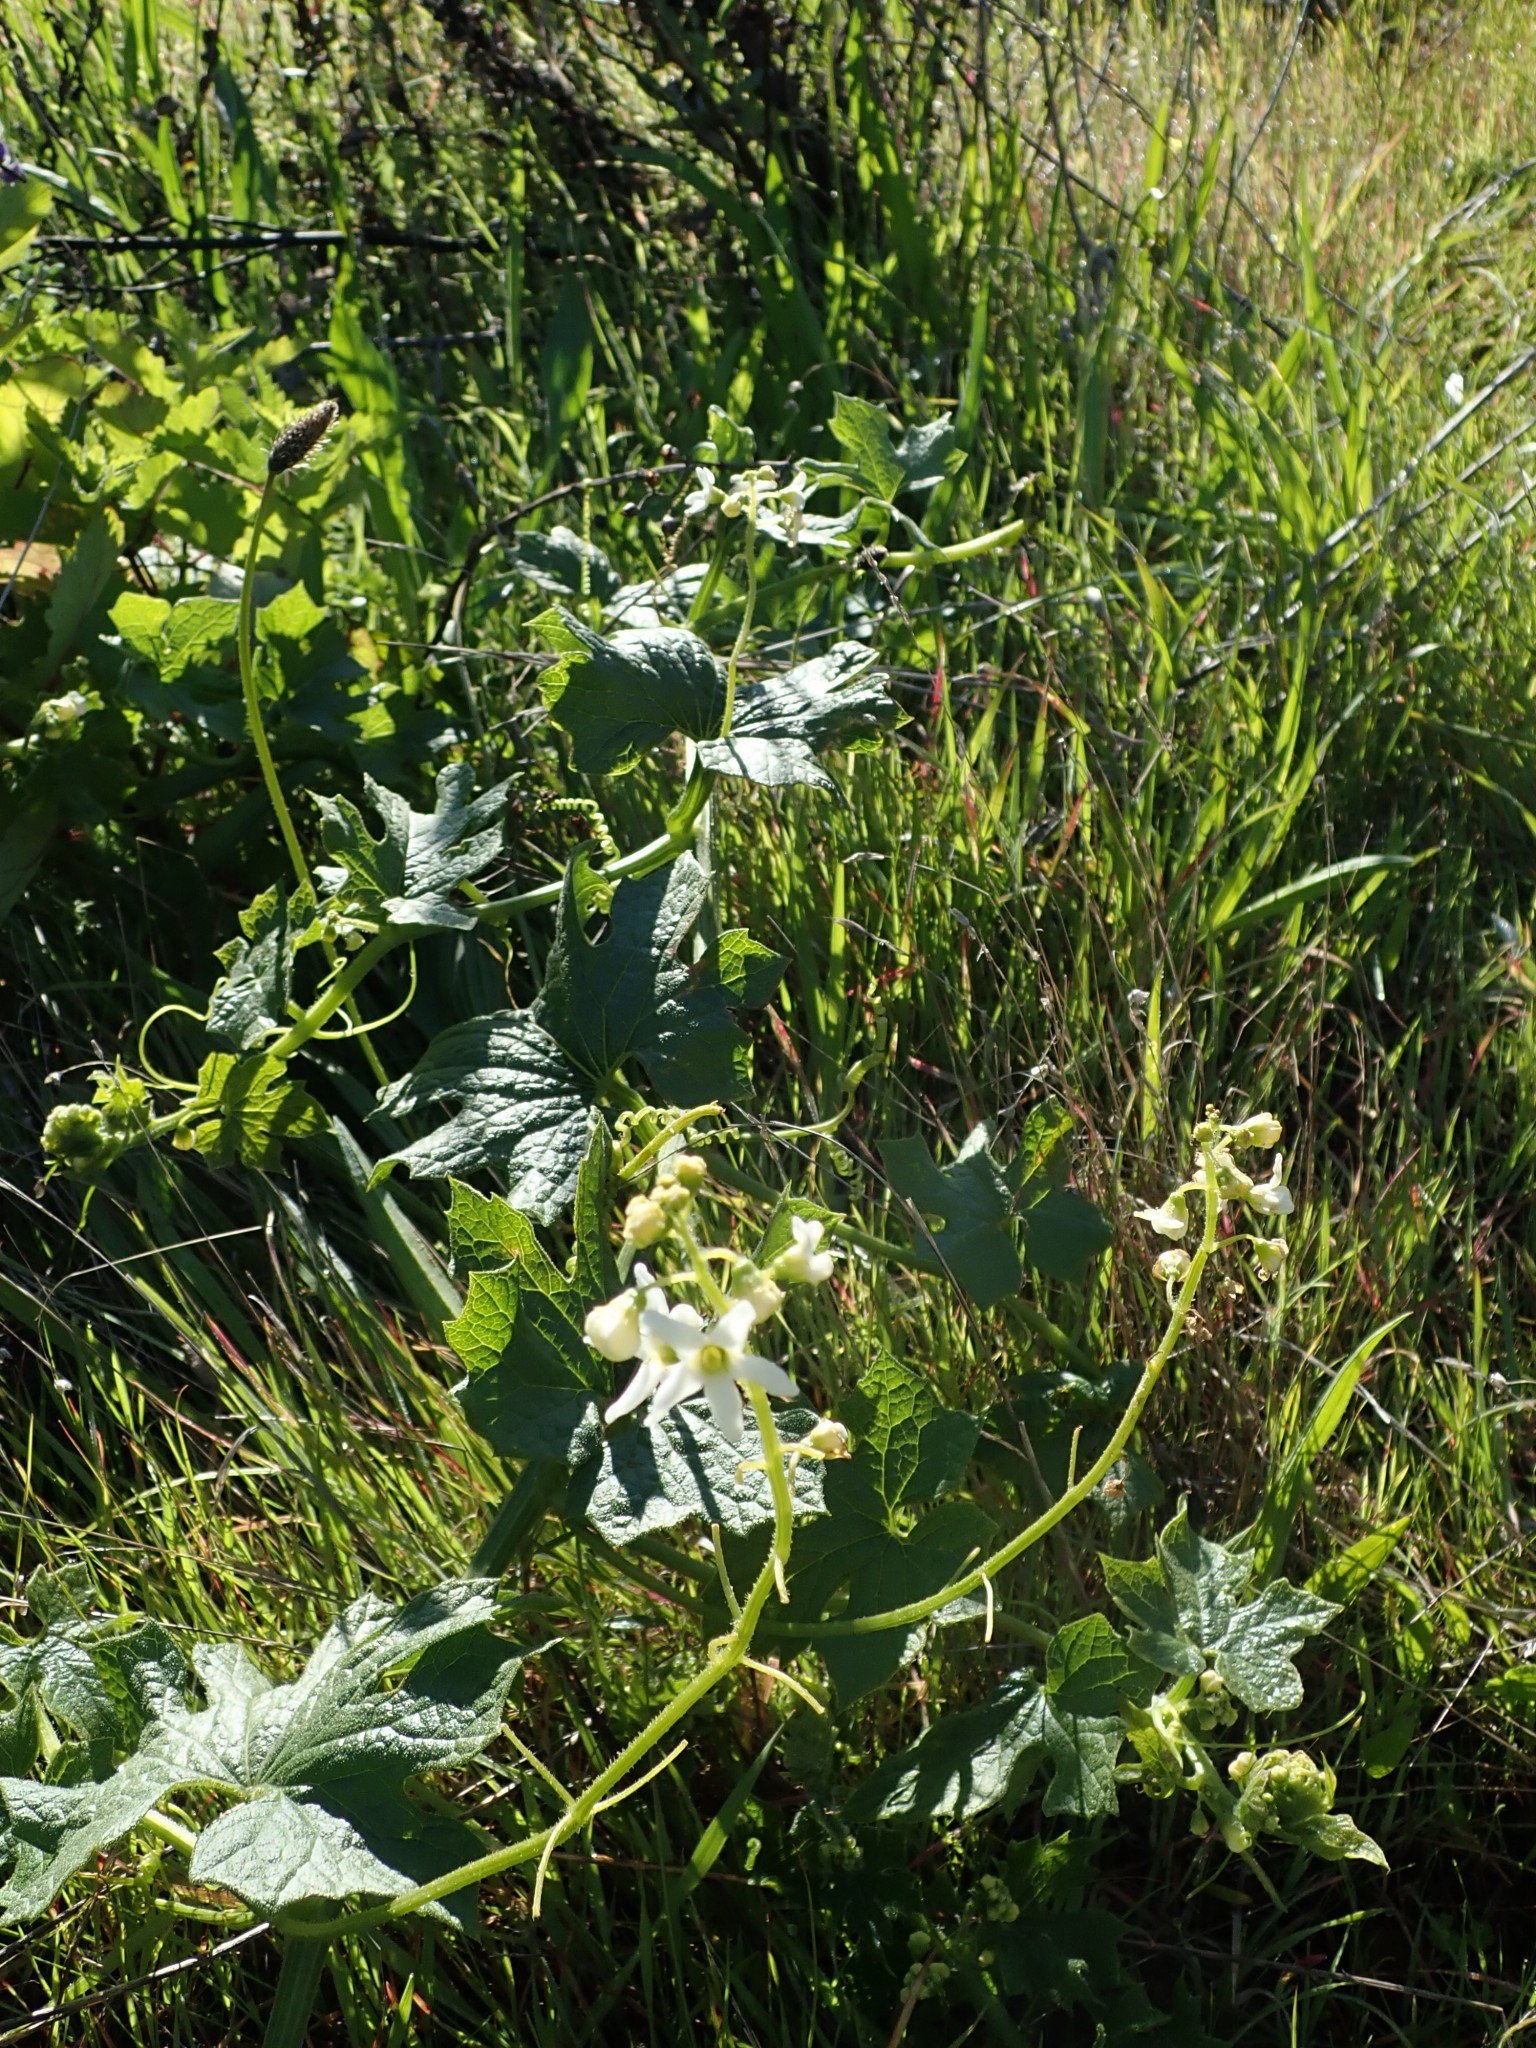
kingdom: Plantae
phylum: Tracheophyta
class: Magnoliopsida
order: Cucurbitales
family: Cucurbitaceae
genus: Marah
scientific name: Marah oregana
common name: Coastal manroot
